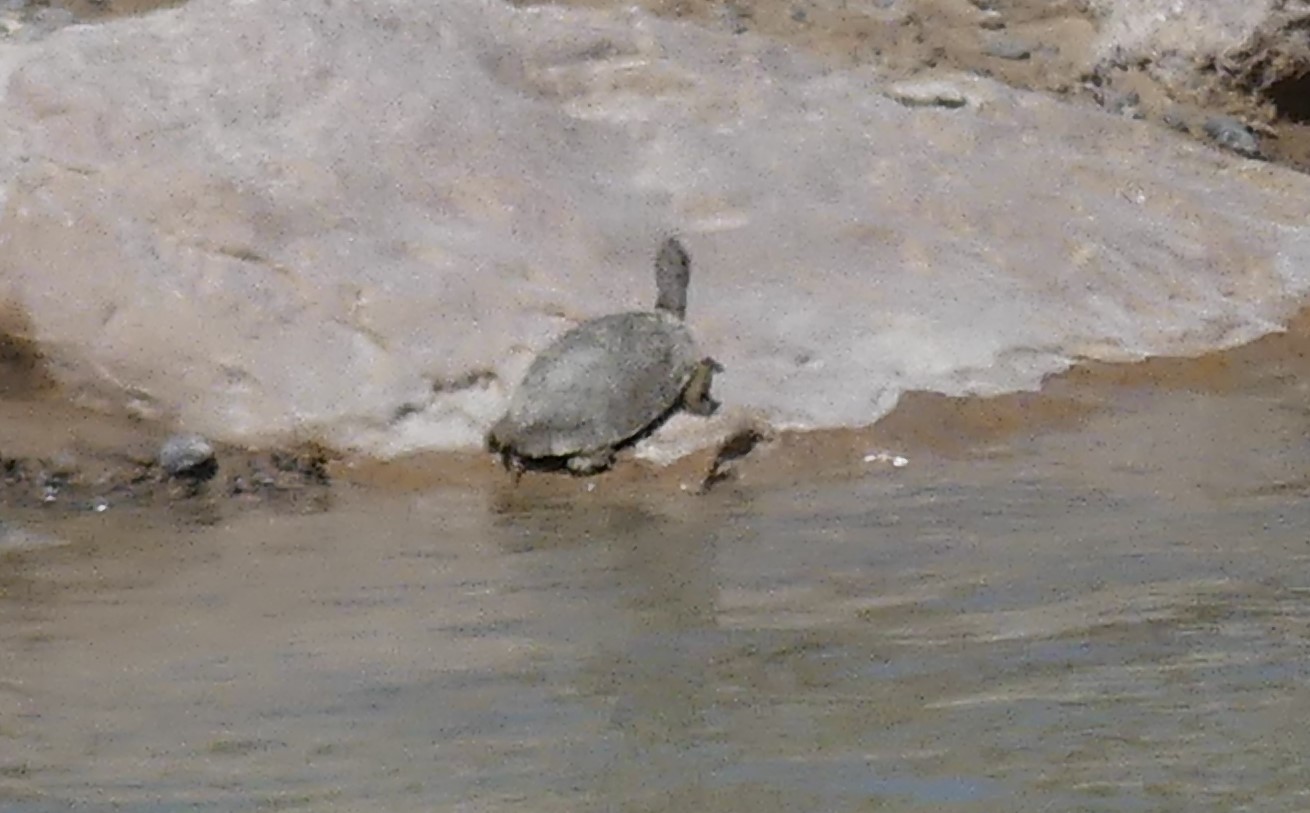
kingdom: Animalia
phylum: Chordata
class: Testudines
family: Geoemydidae
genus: Mauremys
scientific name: Mauremys leprosa
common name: Mediterranean pond turtle
